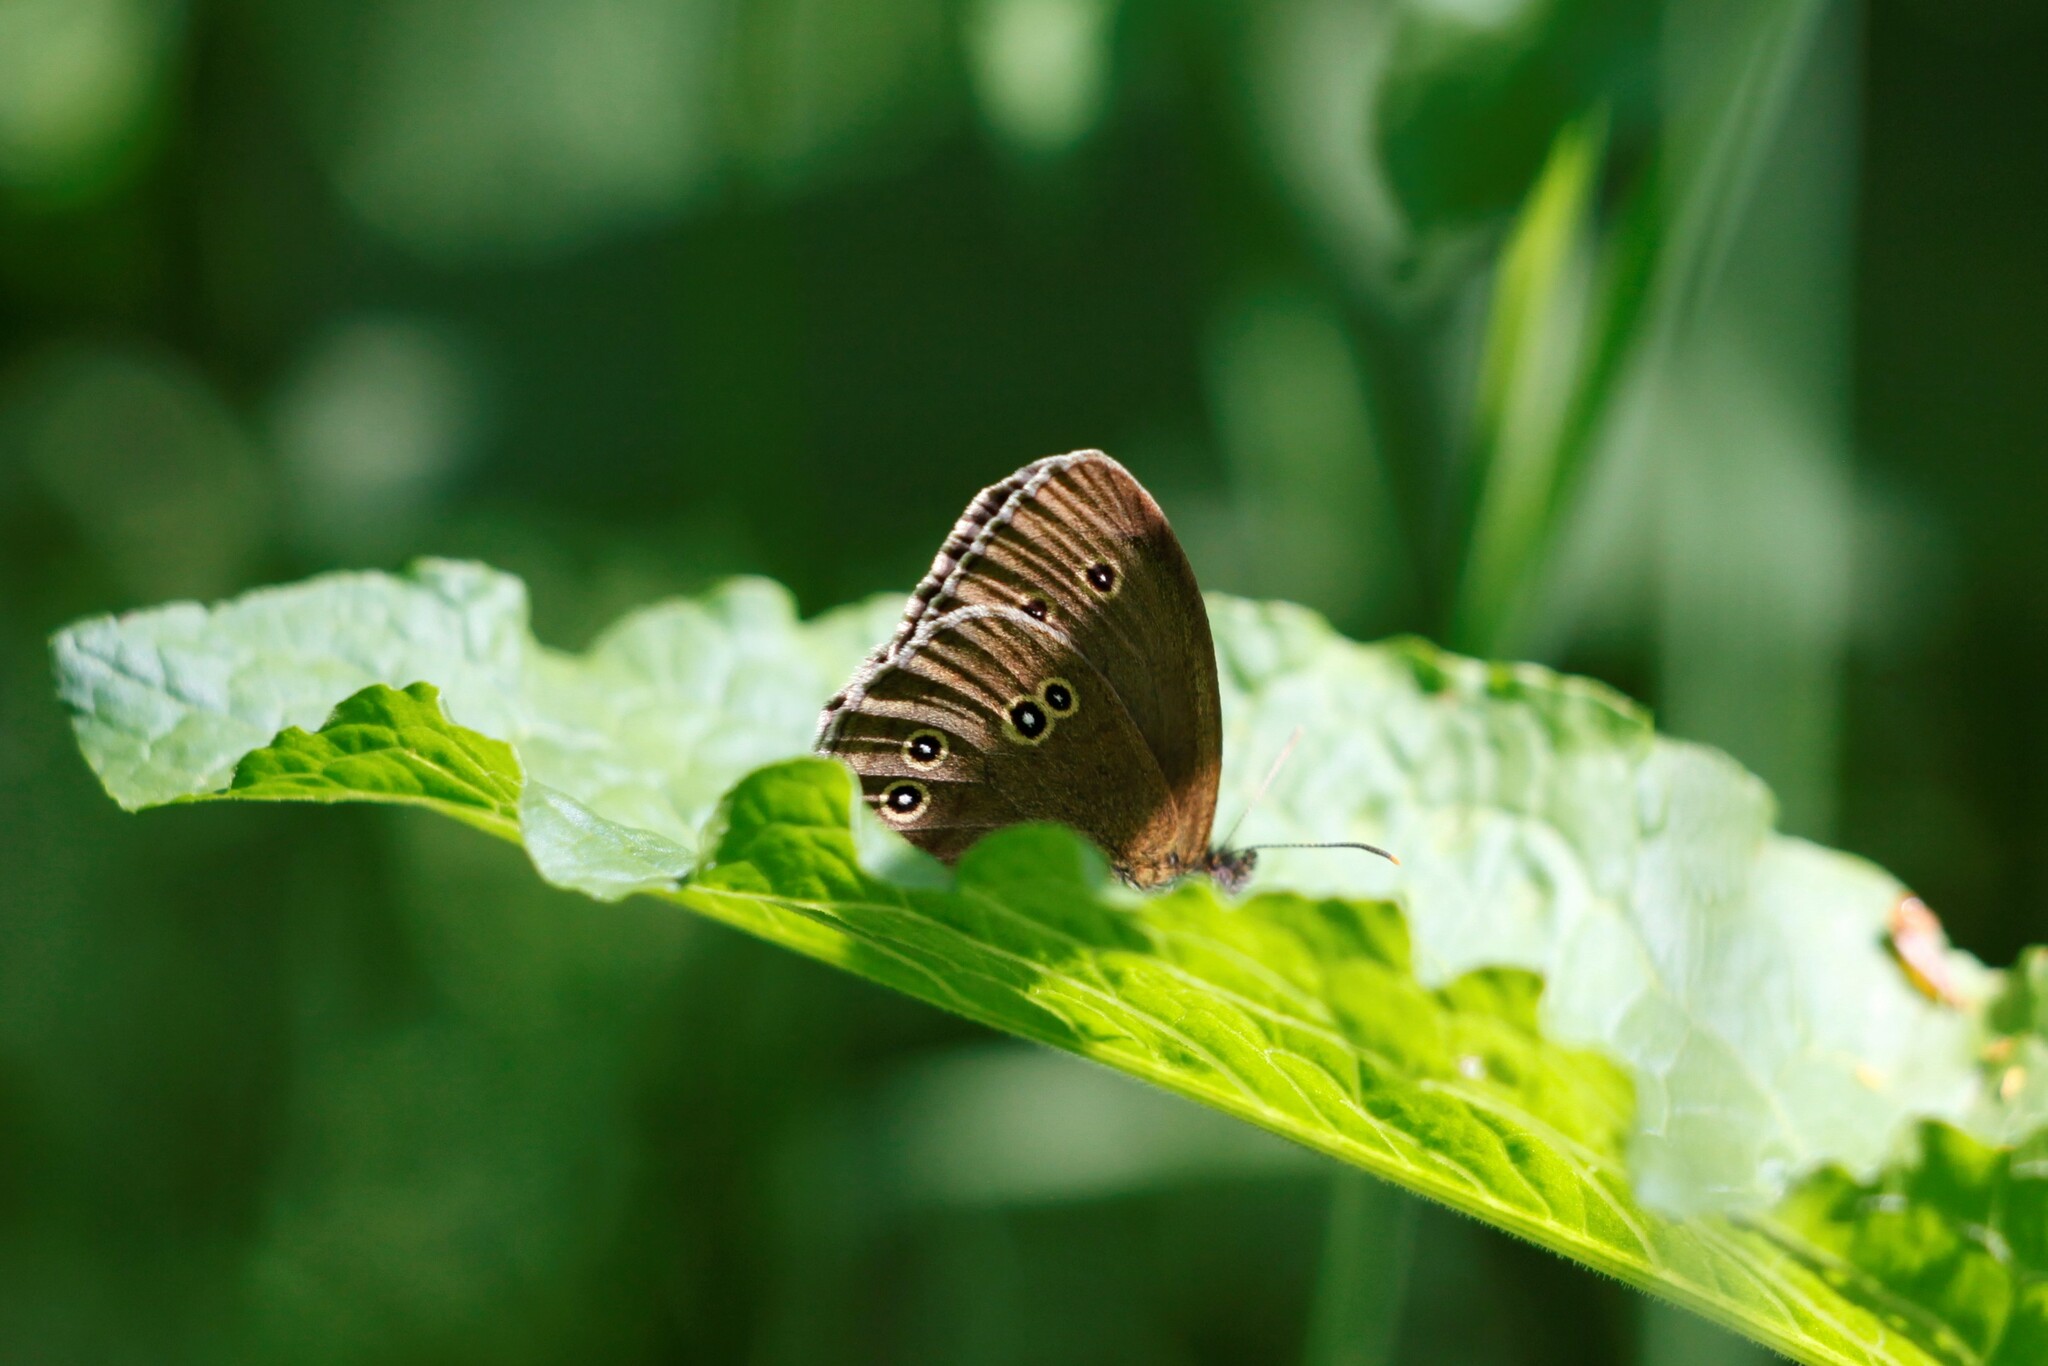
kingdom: Animalia
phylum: Arthropoda
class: Insecta
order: Lepidoptera
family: Nymphalidae
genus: Aphantopus
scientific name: Aphantopus hyperantus
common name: Ringlet
